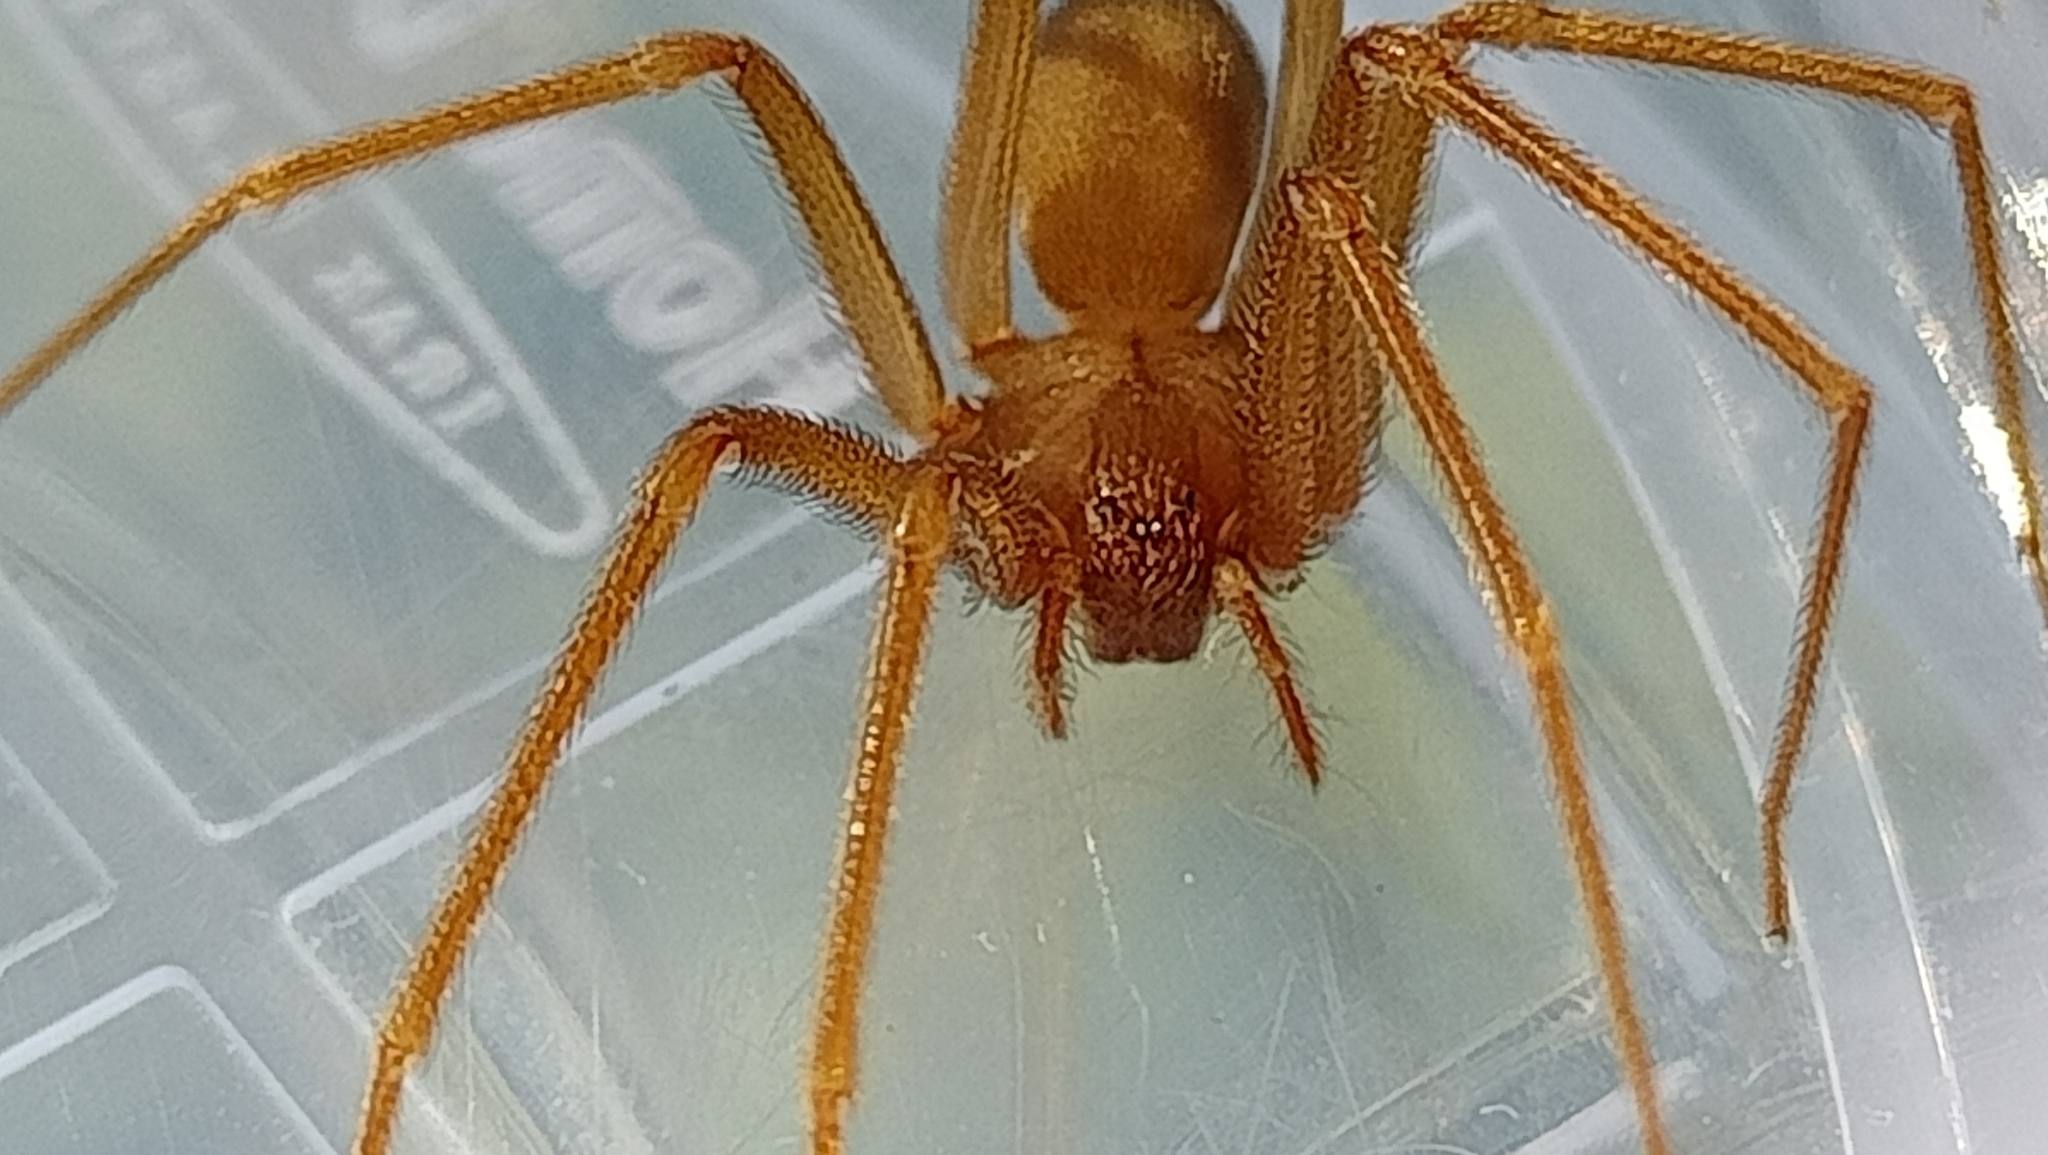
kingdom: Animalia
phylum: Arthropoda
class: Arachnida
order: Araneae
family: Sicariidae
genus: Loxosceles
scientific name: Loxosceles rufescens
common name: Mediterranean recluse spider
